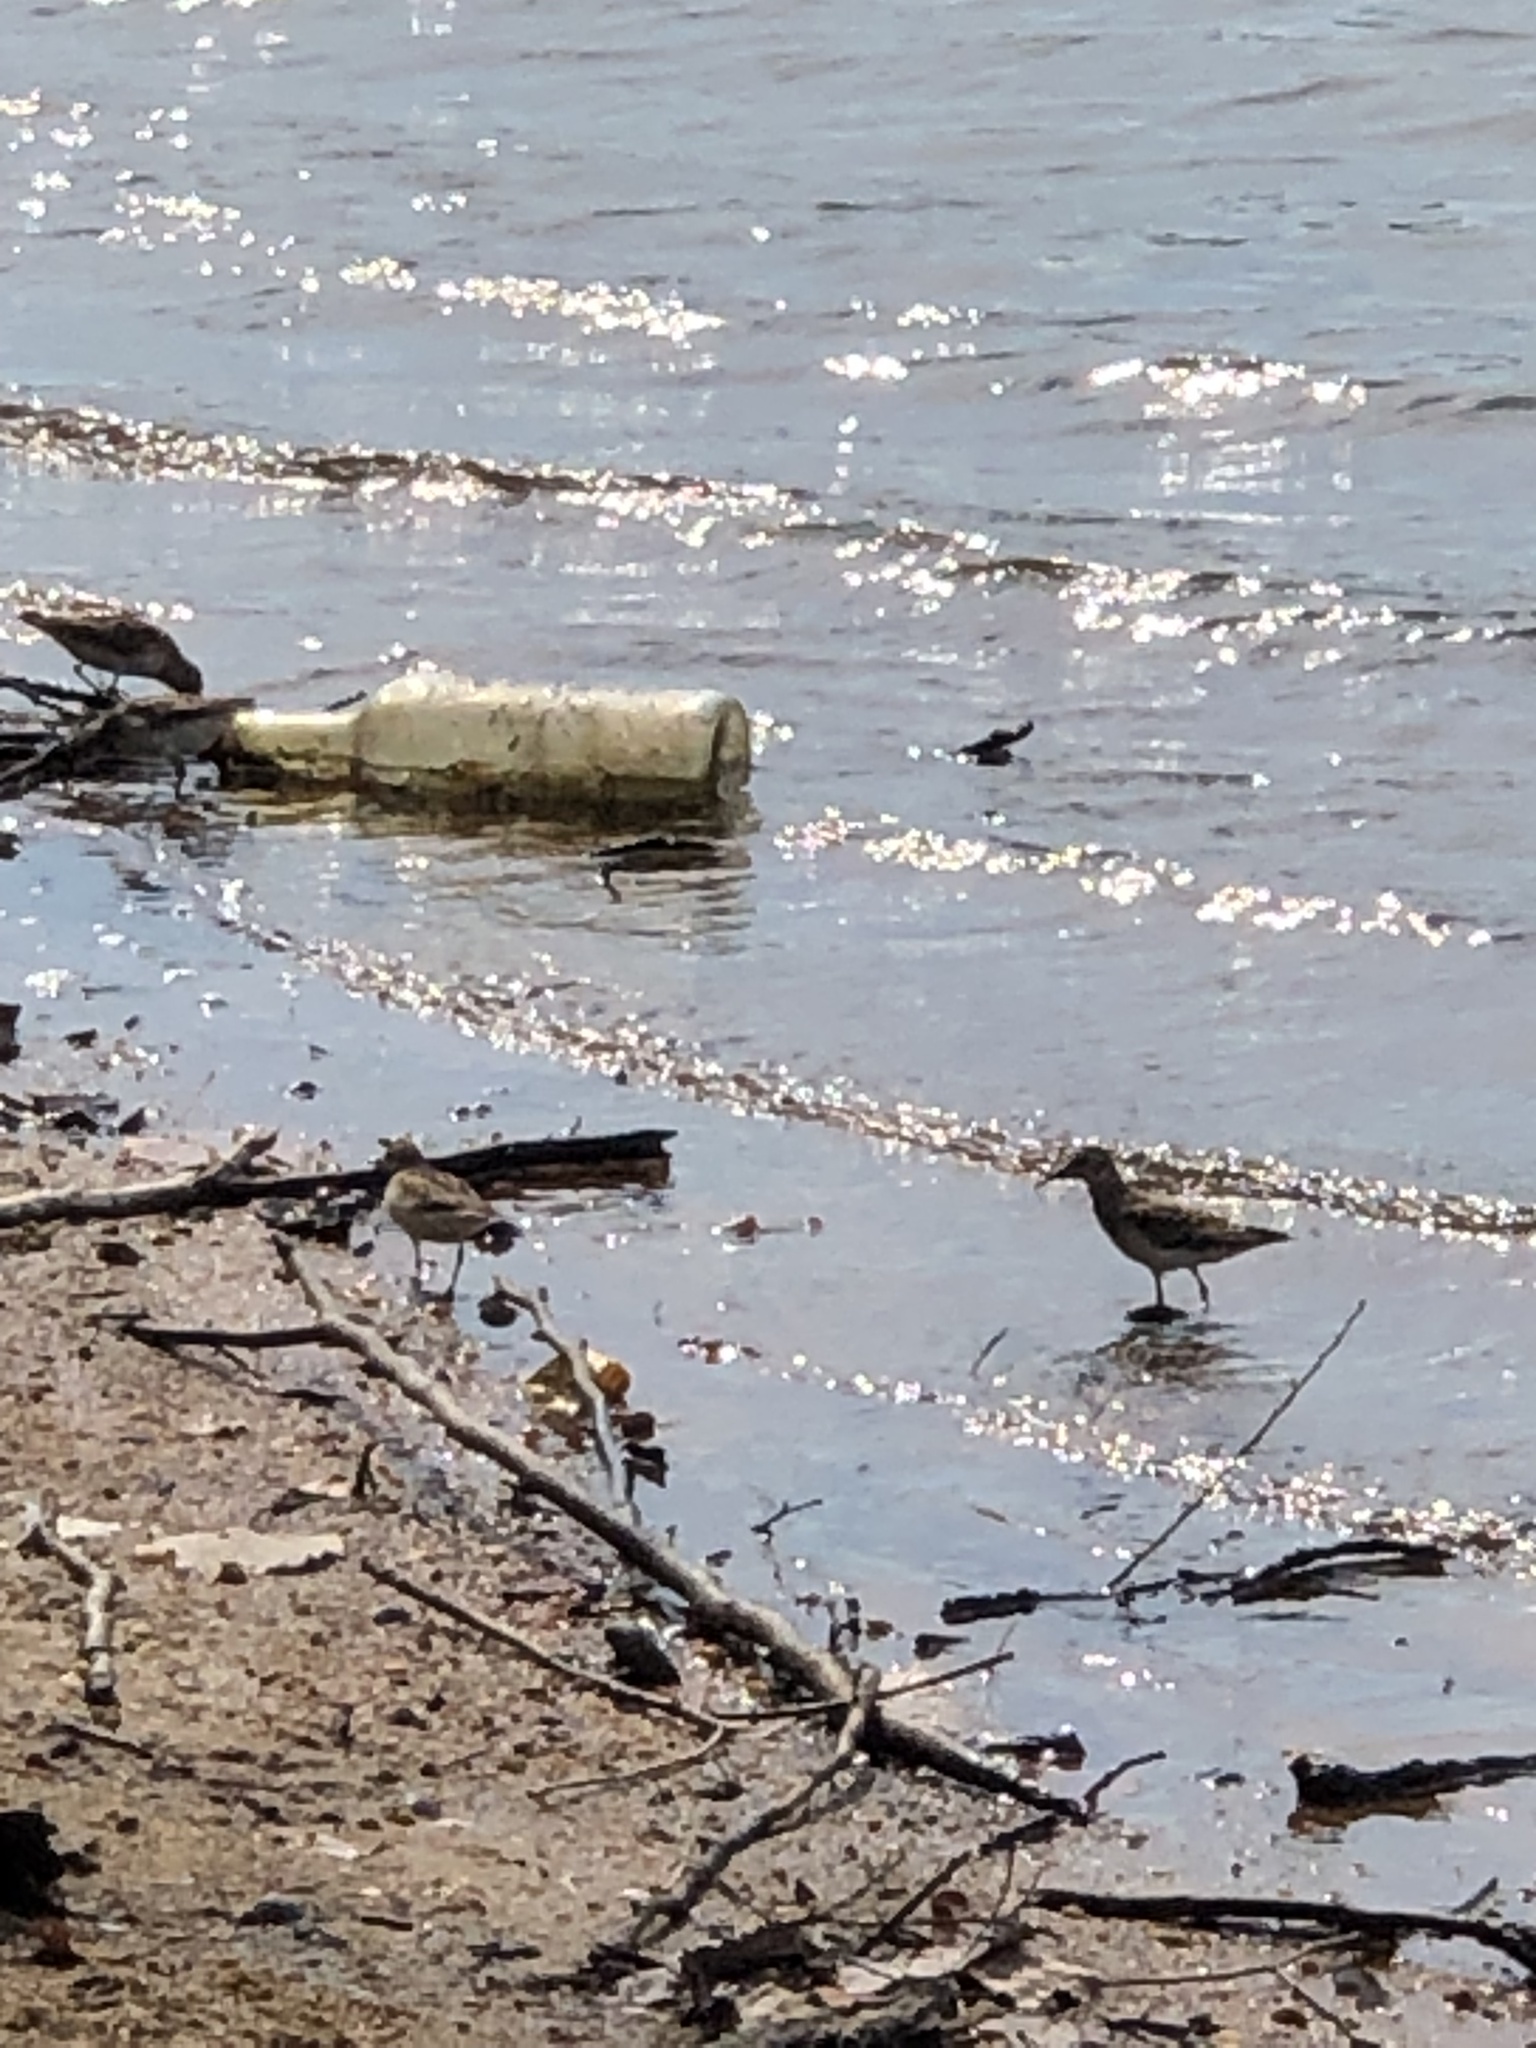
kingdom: Animalia
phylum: Chordata
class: Aves
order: Charadriiformes
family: Scolopacidae
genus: Calidris
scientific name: Calidris minutilla
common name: Least sandpiper
